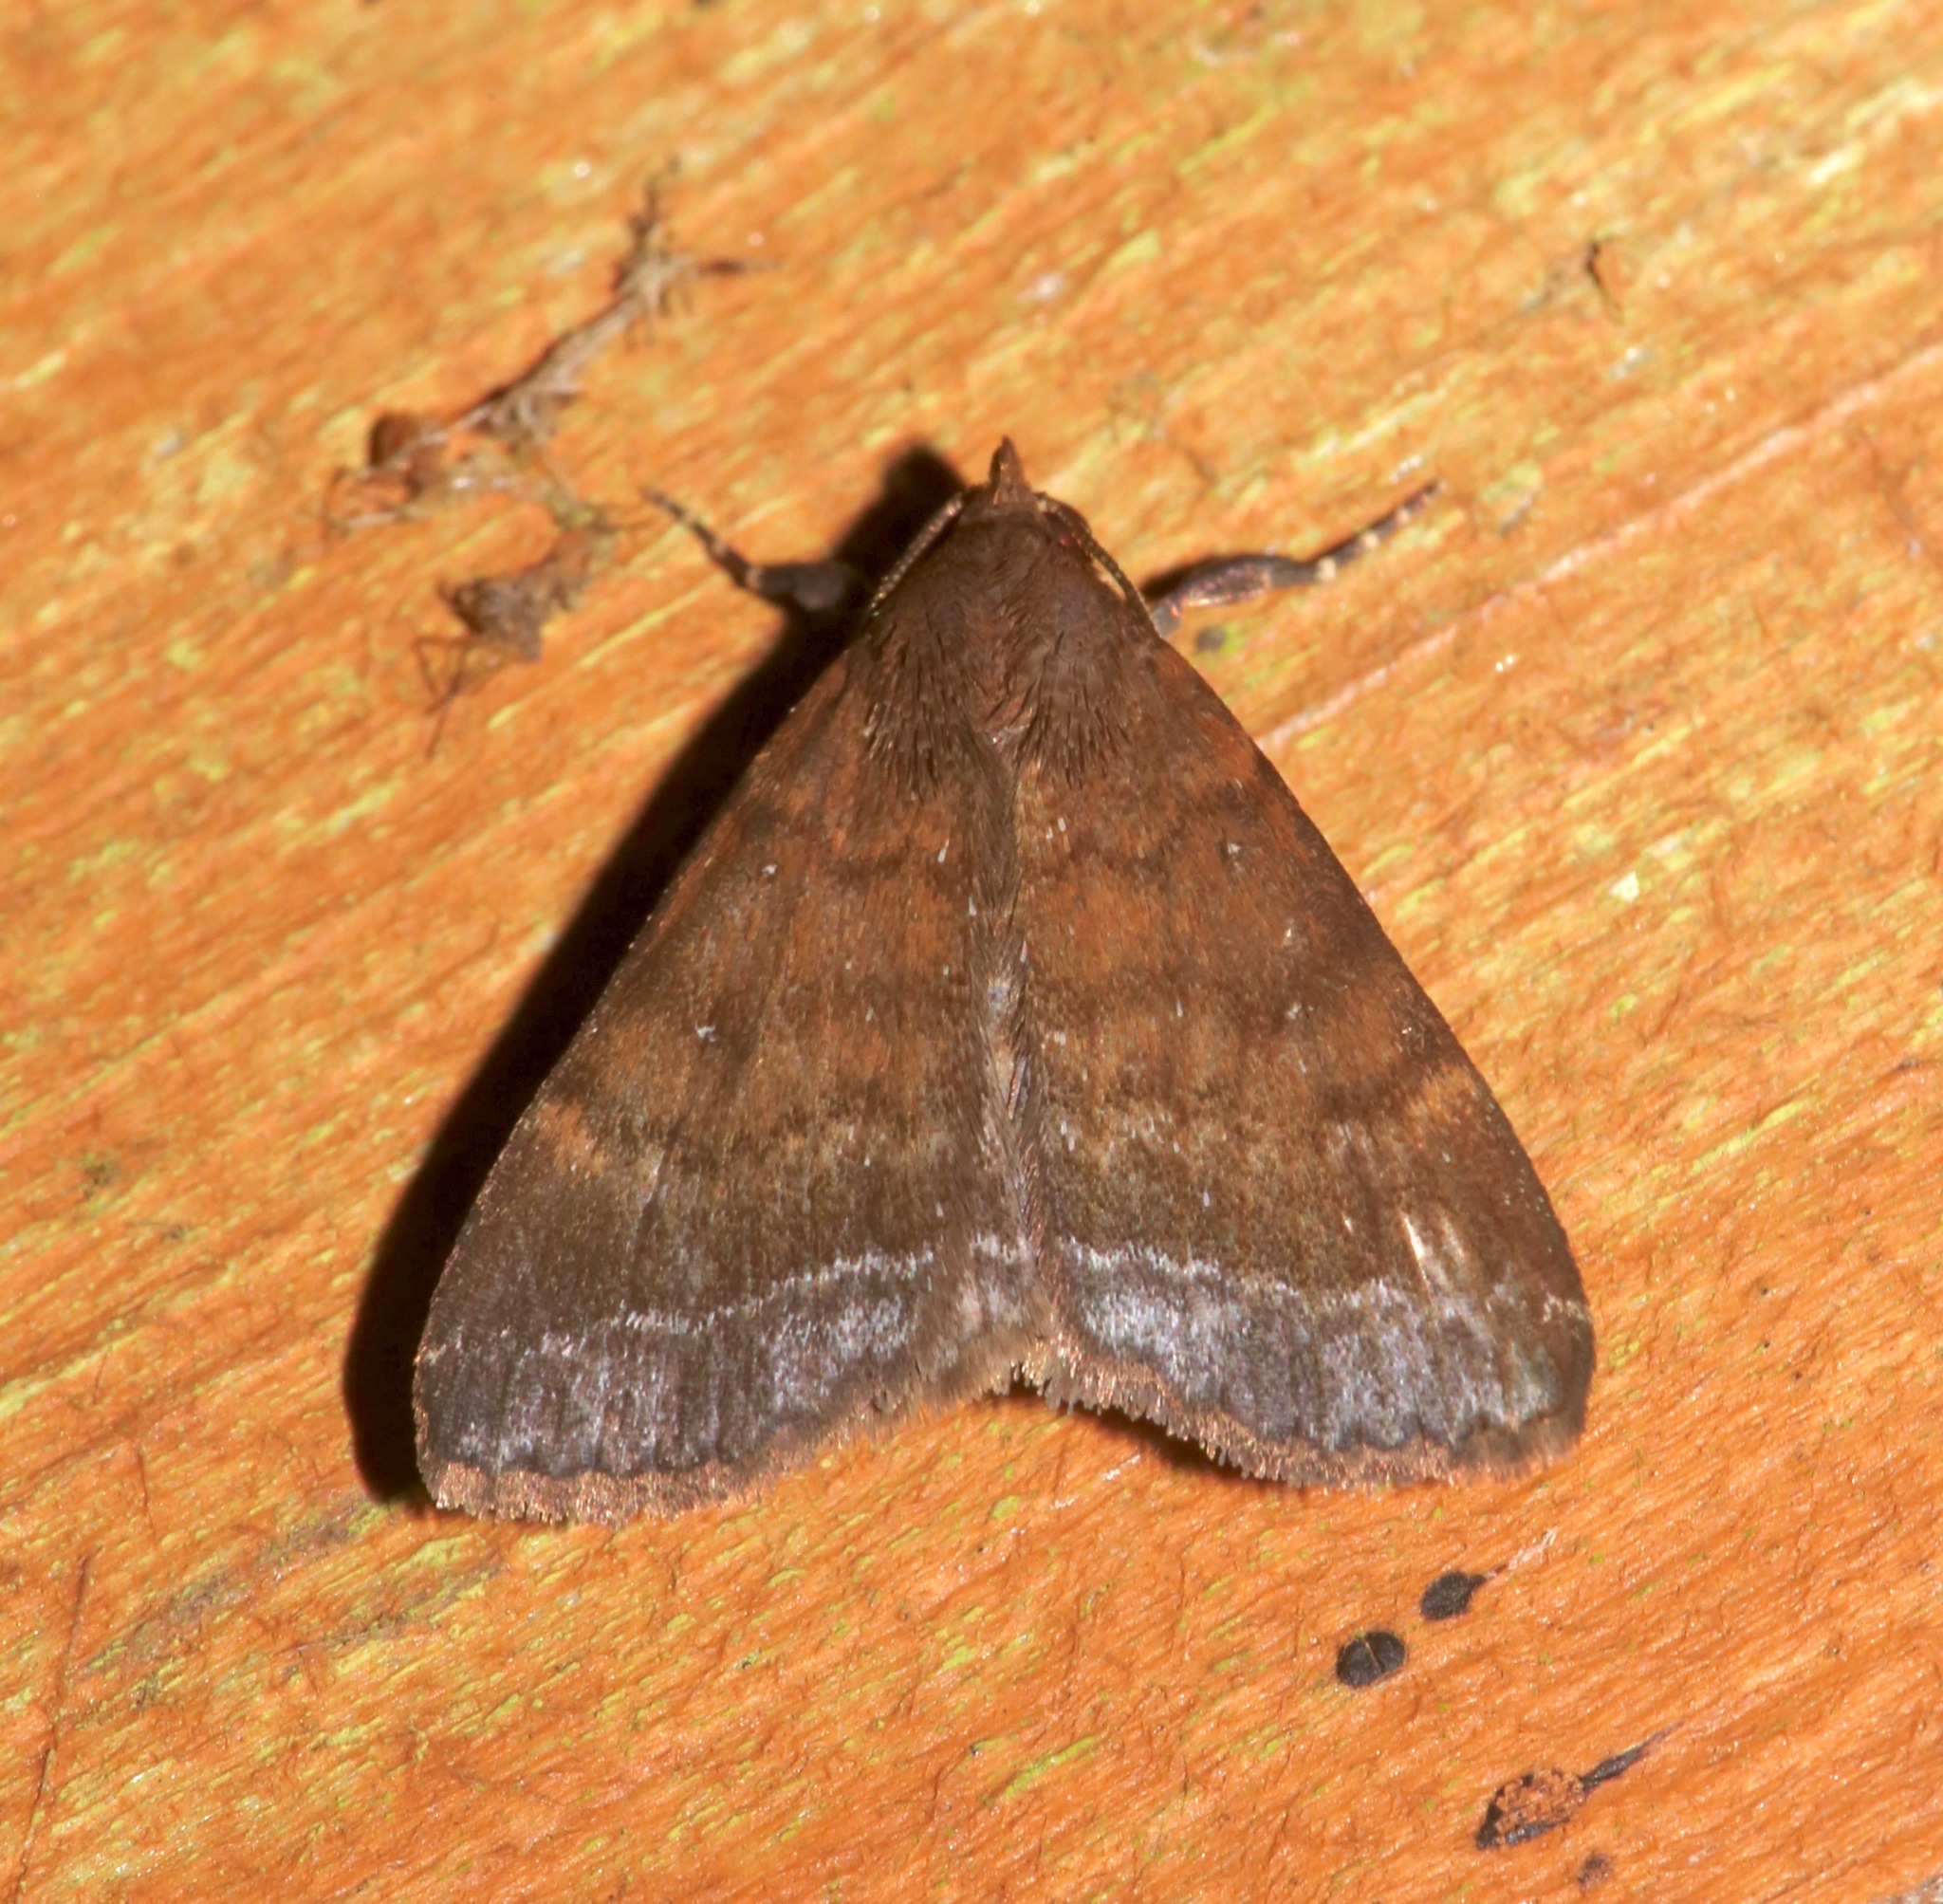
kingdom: Animalia
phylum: Arthropoda
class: Insecta
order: Lepidoptera
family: Erebidae
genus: Physula
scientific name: Physula albipunctilla
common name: Cutworm moth
